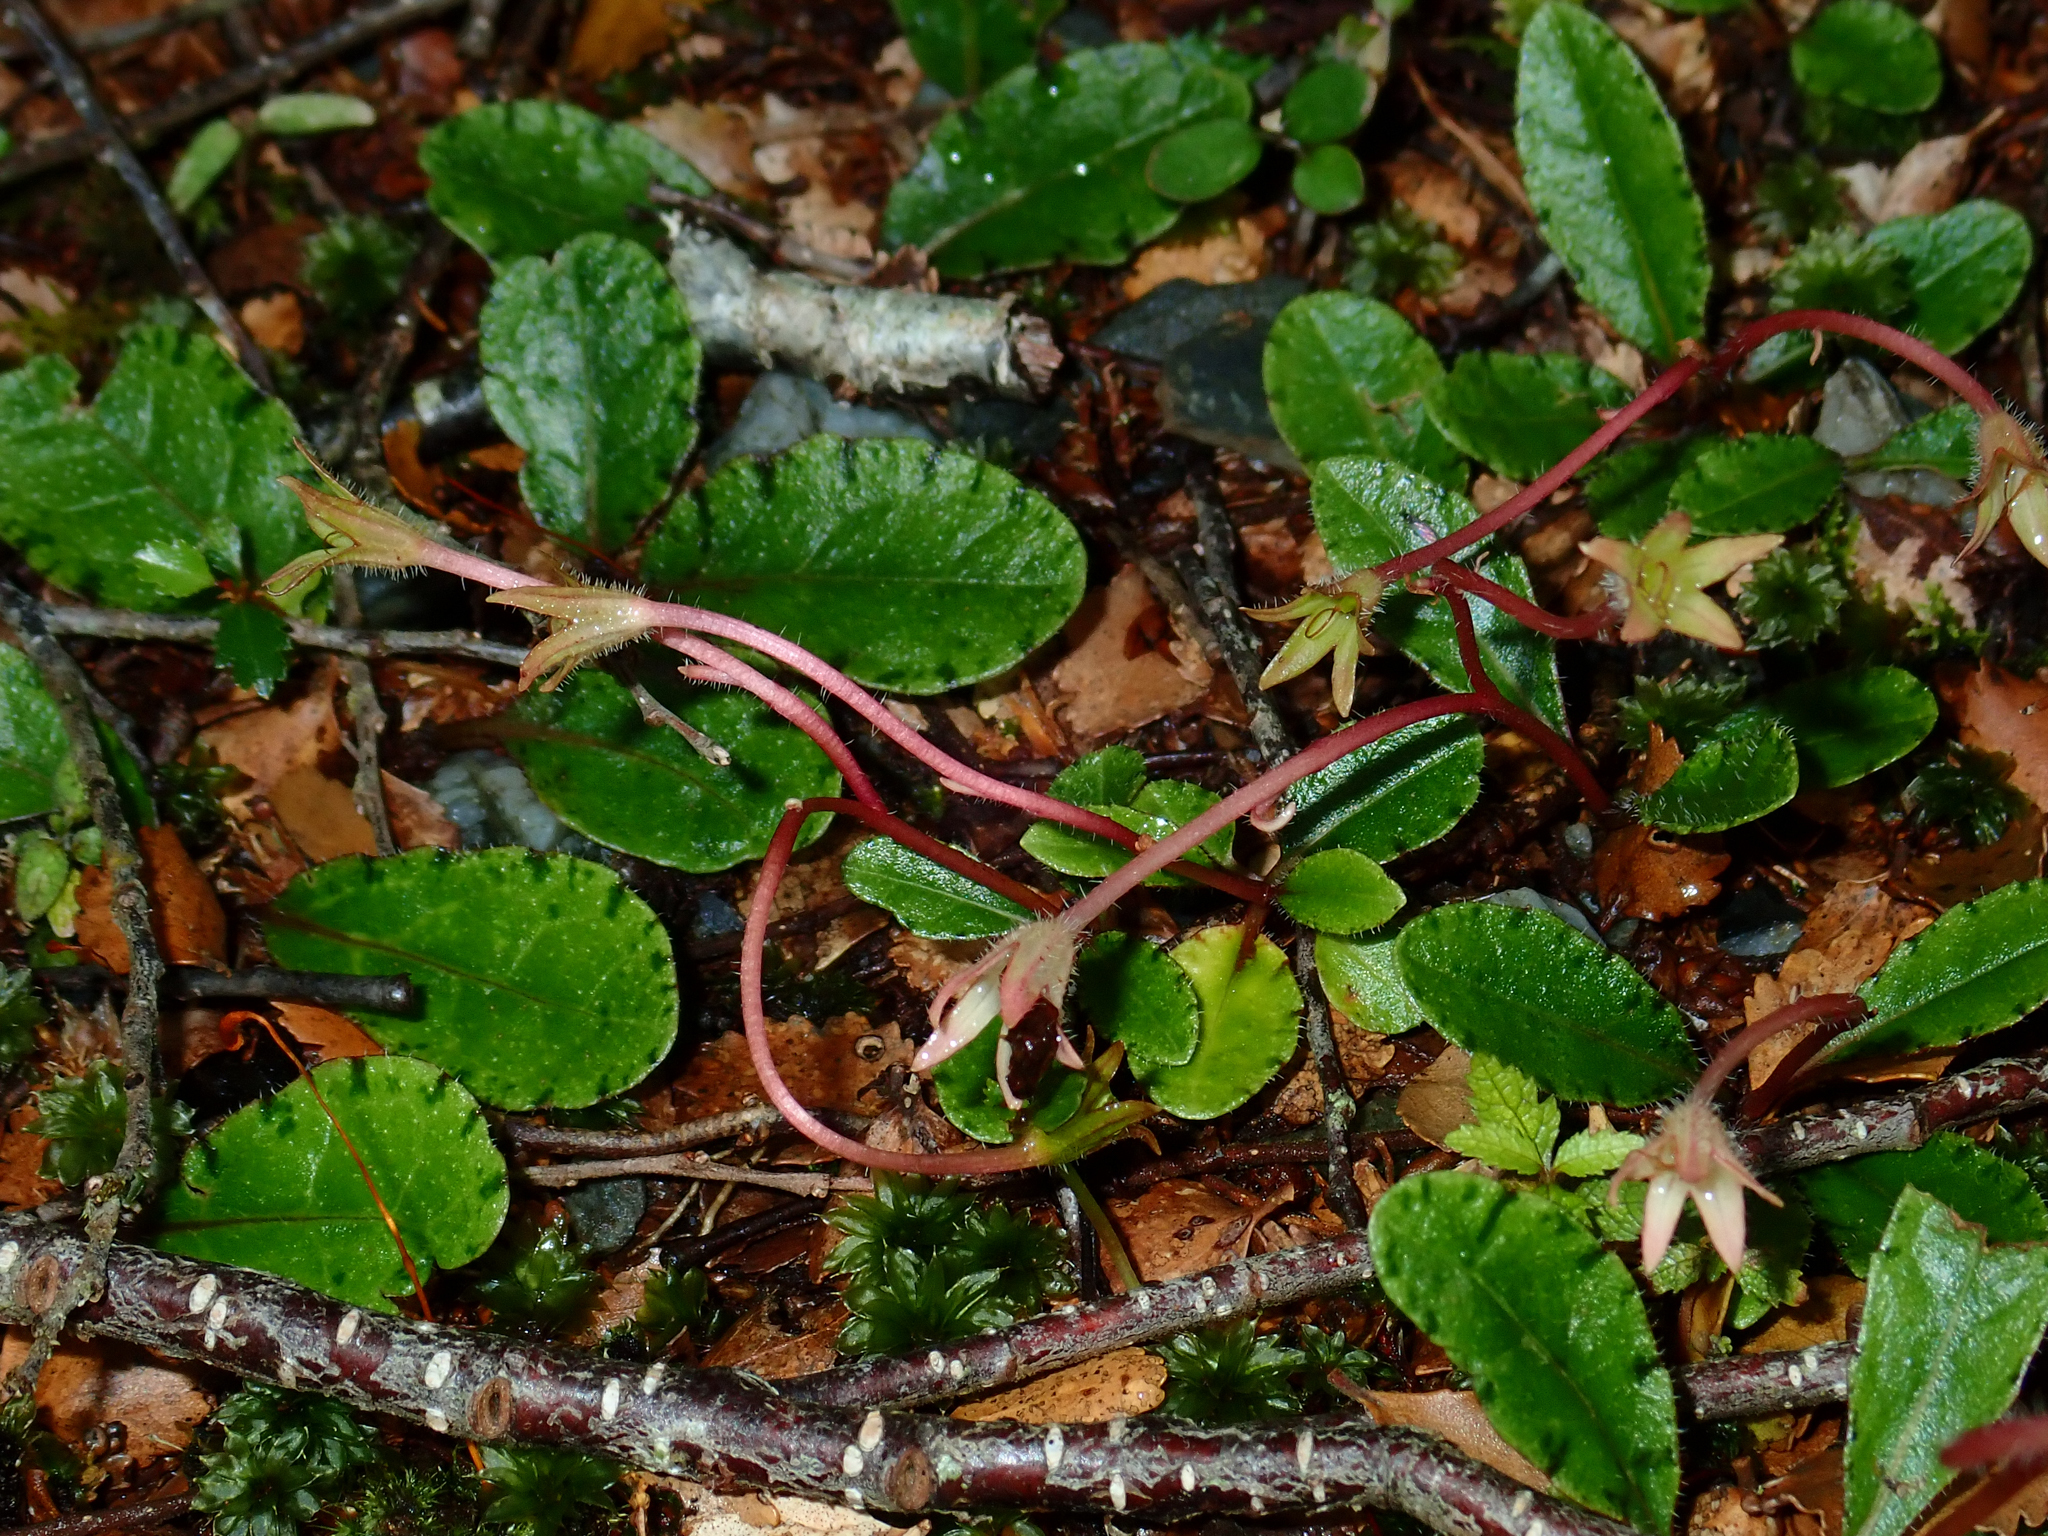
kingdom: Plantae
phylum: Tracheophyta
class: Magnoliopsida
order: Lamiales
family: Mazaceae
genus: Mazus
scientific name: Mazus radicans
